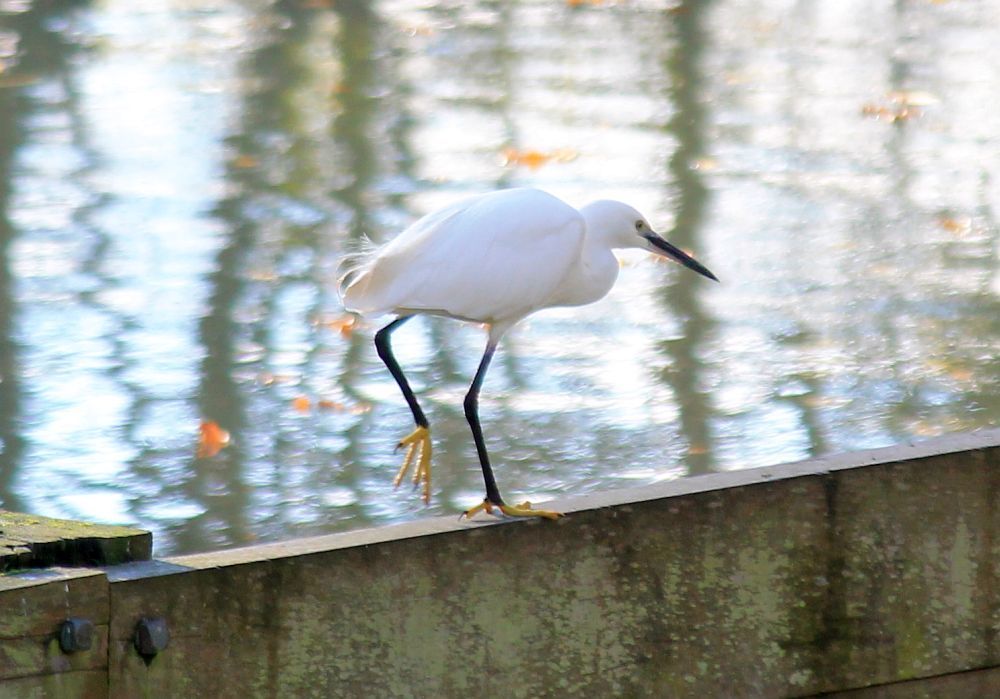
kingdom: Animalia
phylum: Chordata
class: Aves
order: Pelecaniformes
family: Ardeidae
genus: Egretta
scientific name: Egretta garzetta
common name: Little egret
